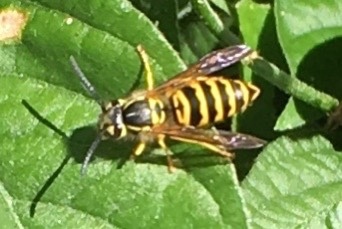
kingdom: Animalia
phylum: Arthropoda
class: Insecta
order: Hymenoptera
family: Vespidae
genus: Vespula
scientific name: Vespula maculifrons
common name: Eastern yellowjacket
